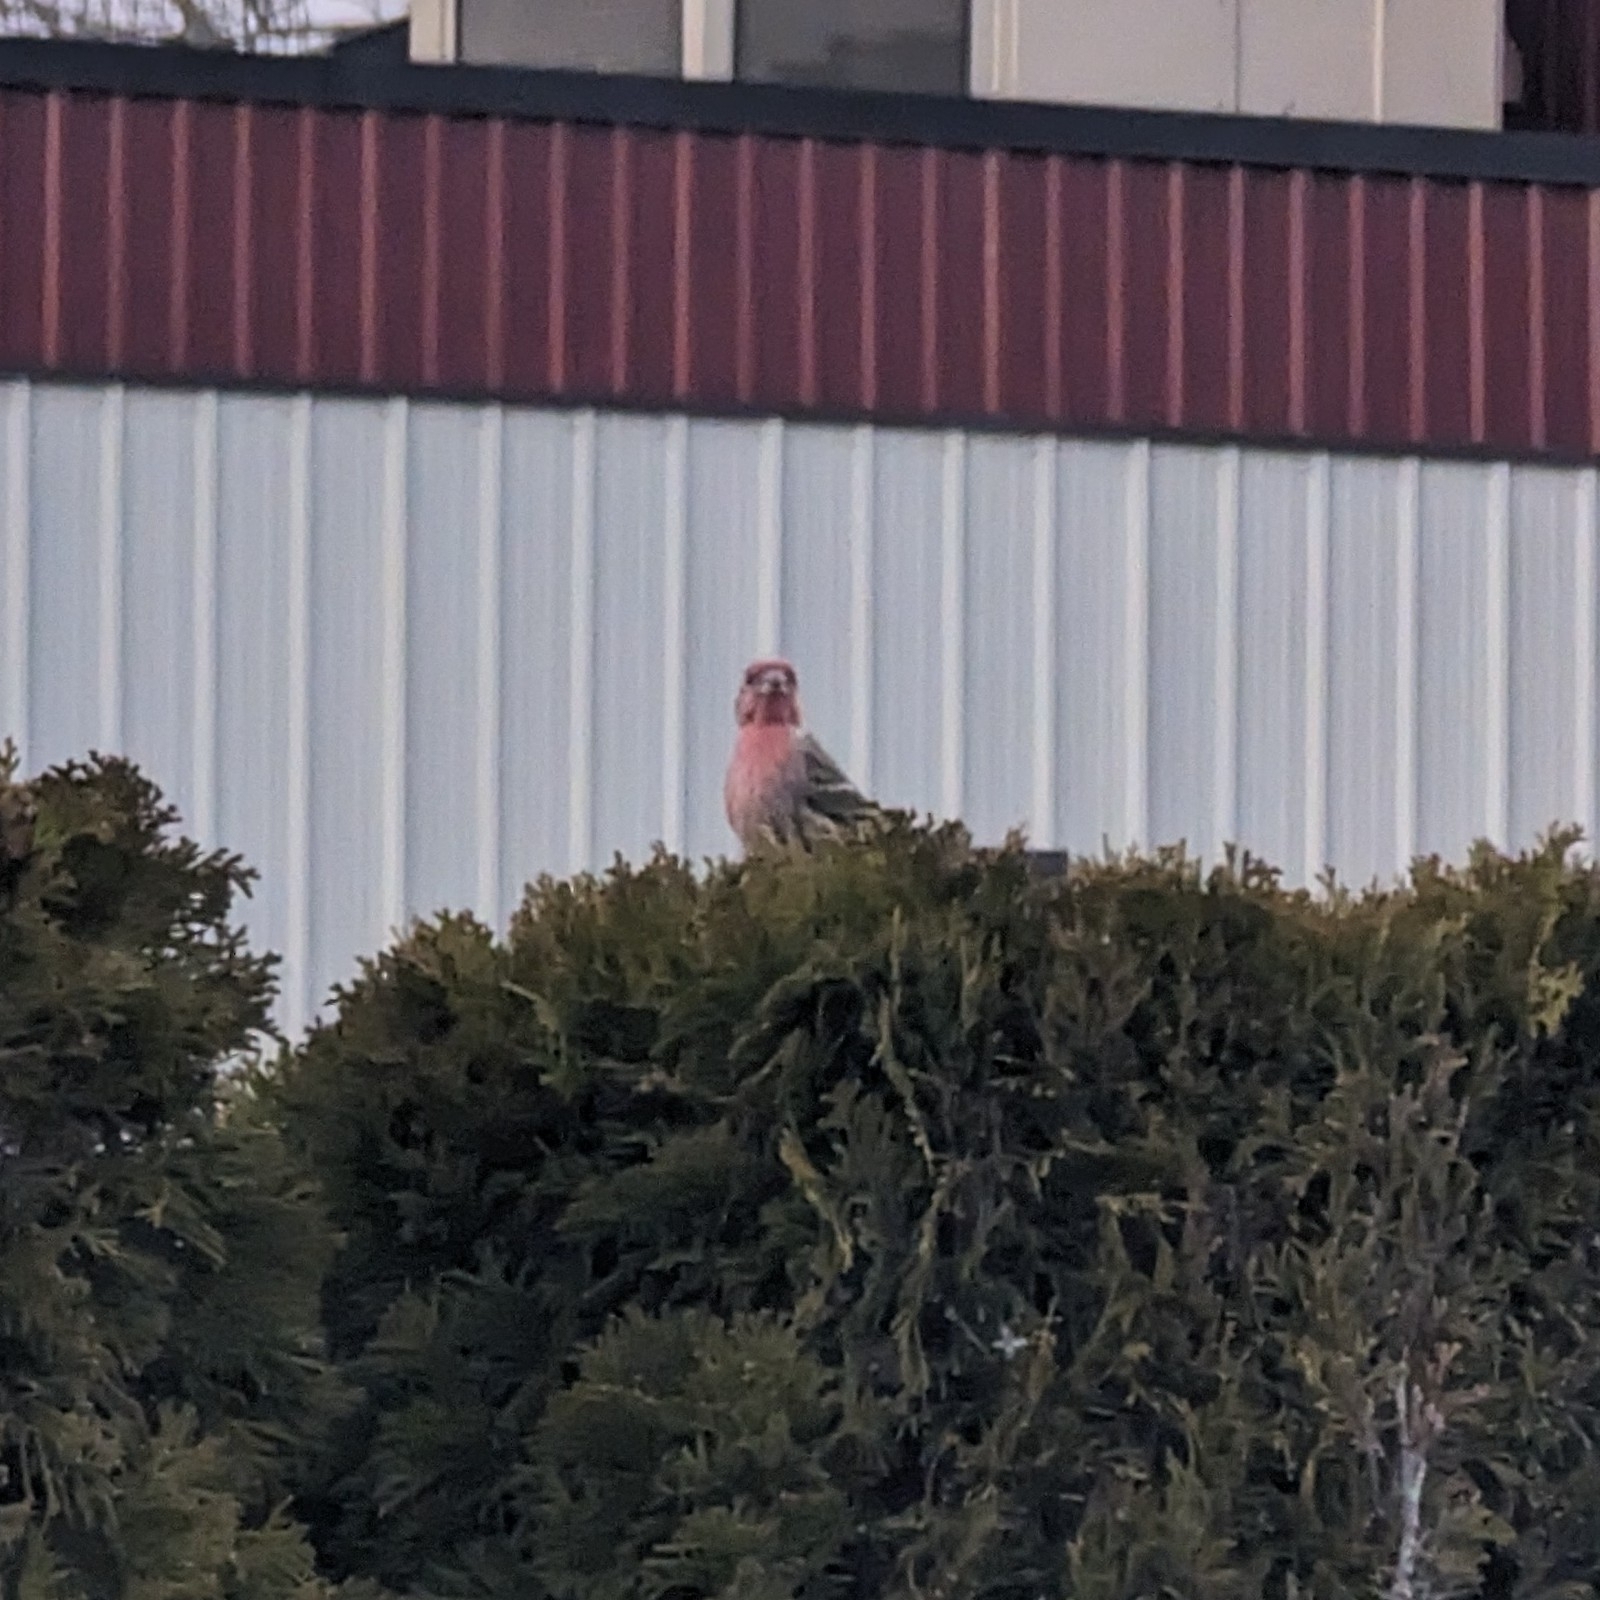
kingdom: Animalia
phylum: Chordata
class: Aves
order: Passeriformes
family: Fringillidae
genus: Haemorhous
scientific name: Haemorhous mexicanus
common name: House finch
